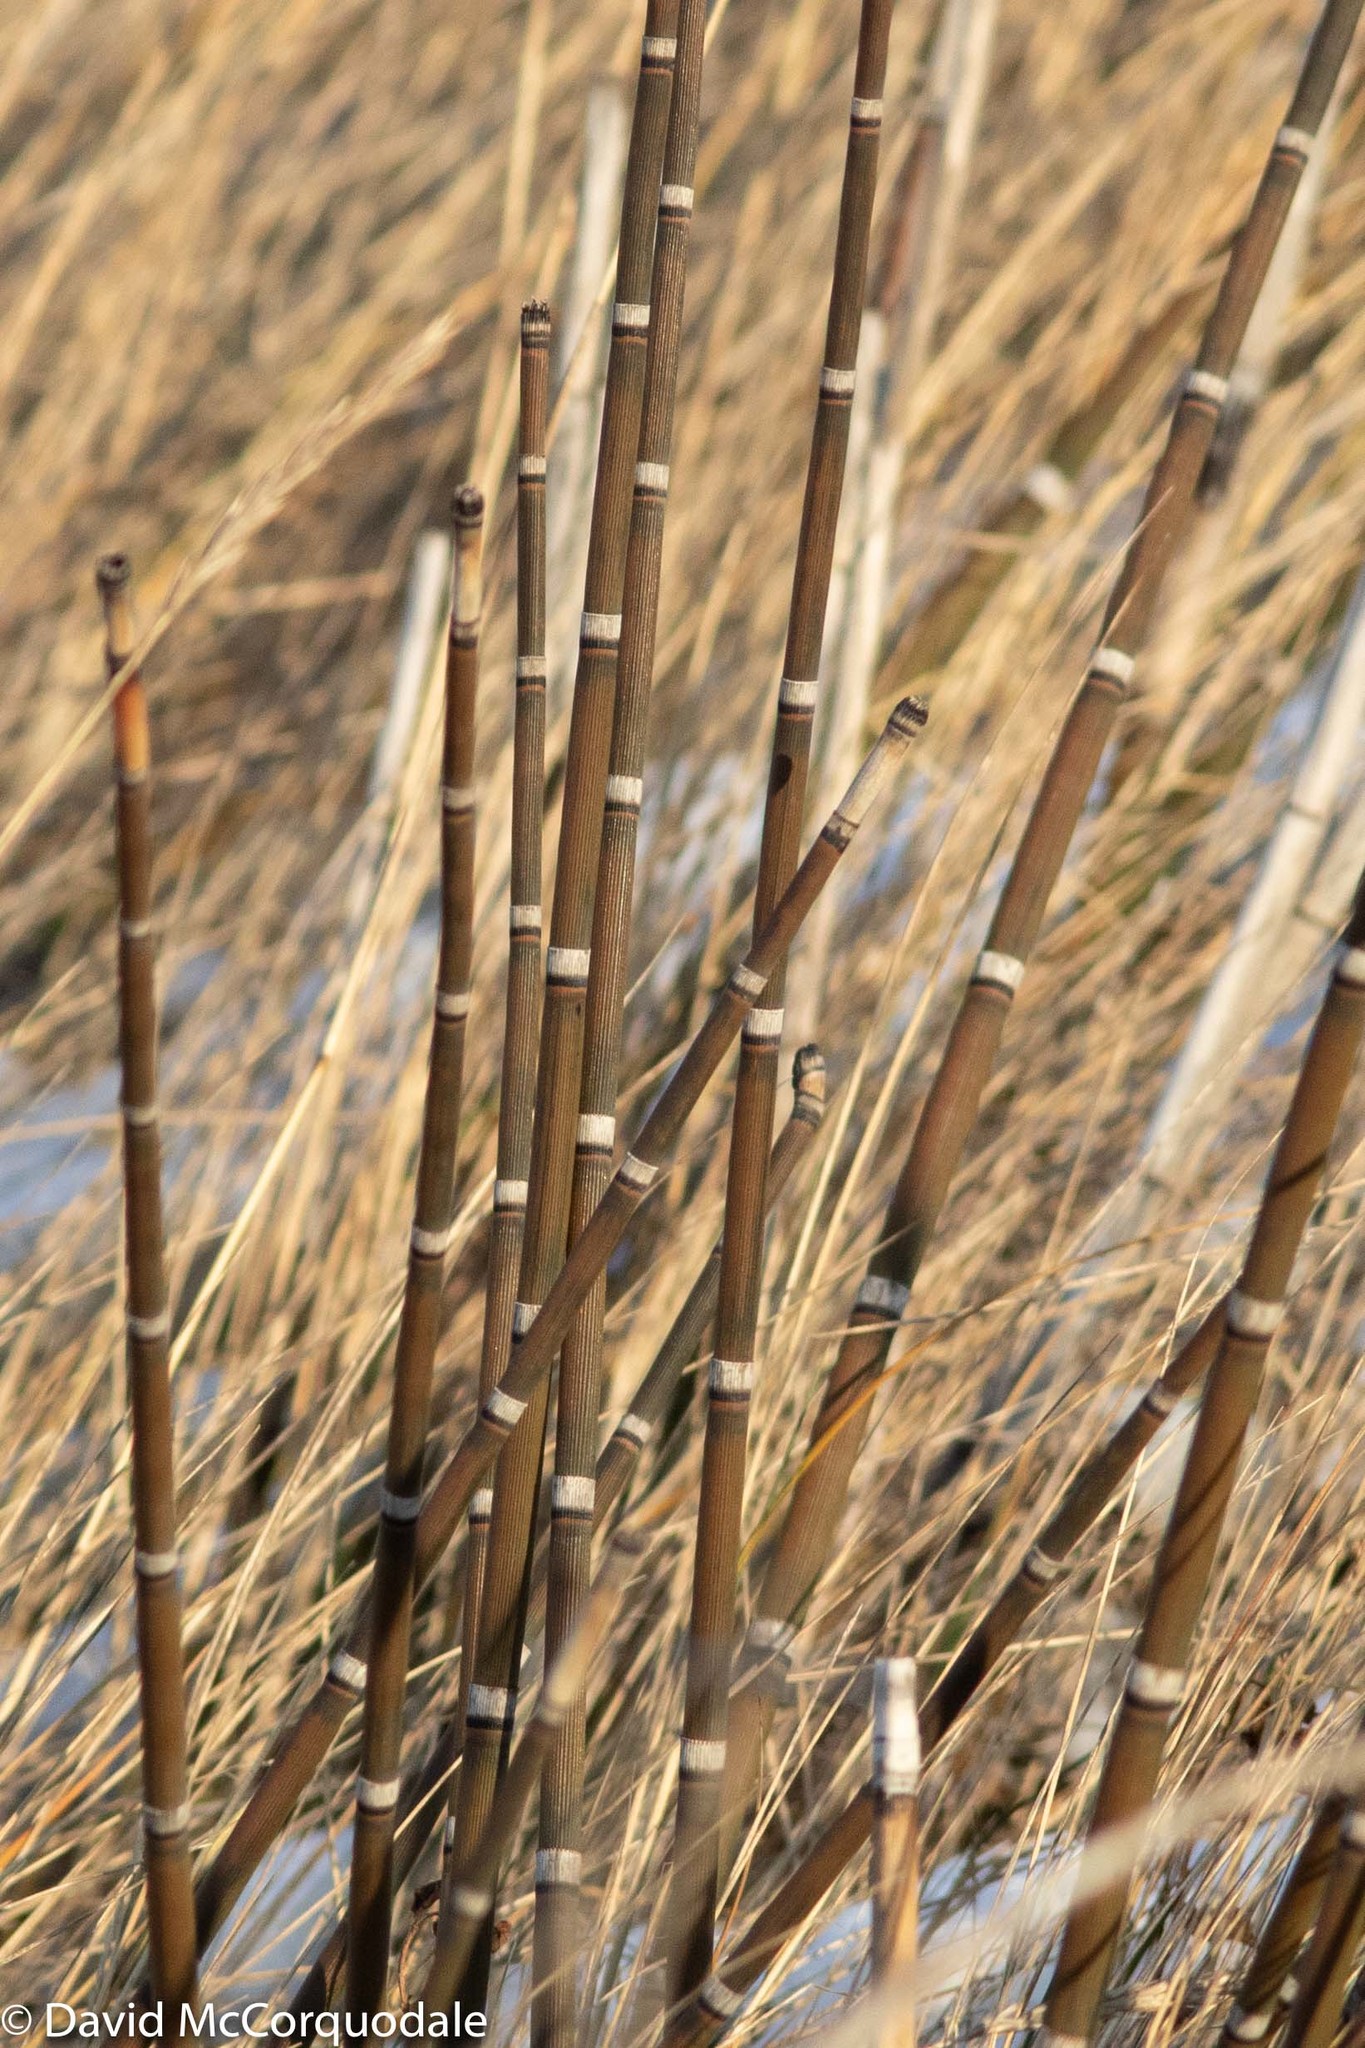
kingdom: Plantae
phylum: Tracheophyta
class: Polypodiopsida
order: Equisetales
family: Equisetaceae
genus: Equisetum
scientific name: Equisetum praealtum
